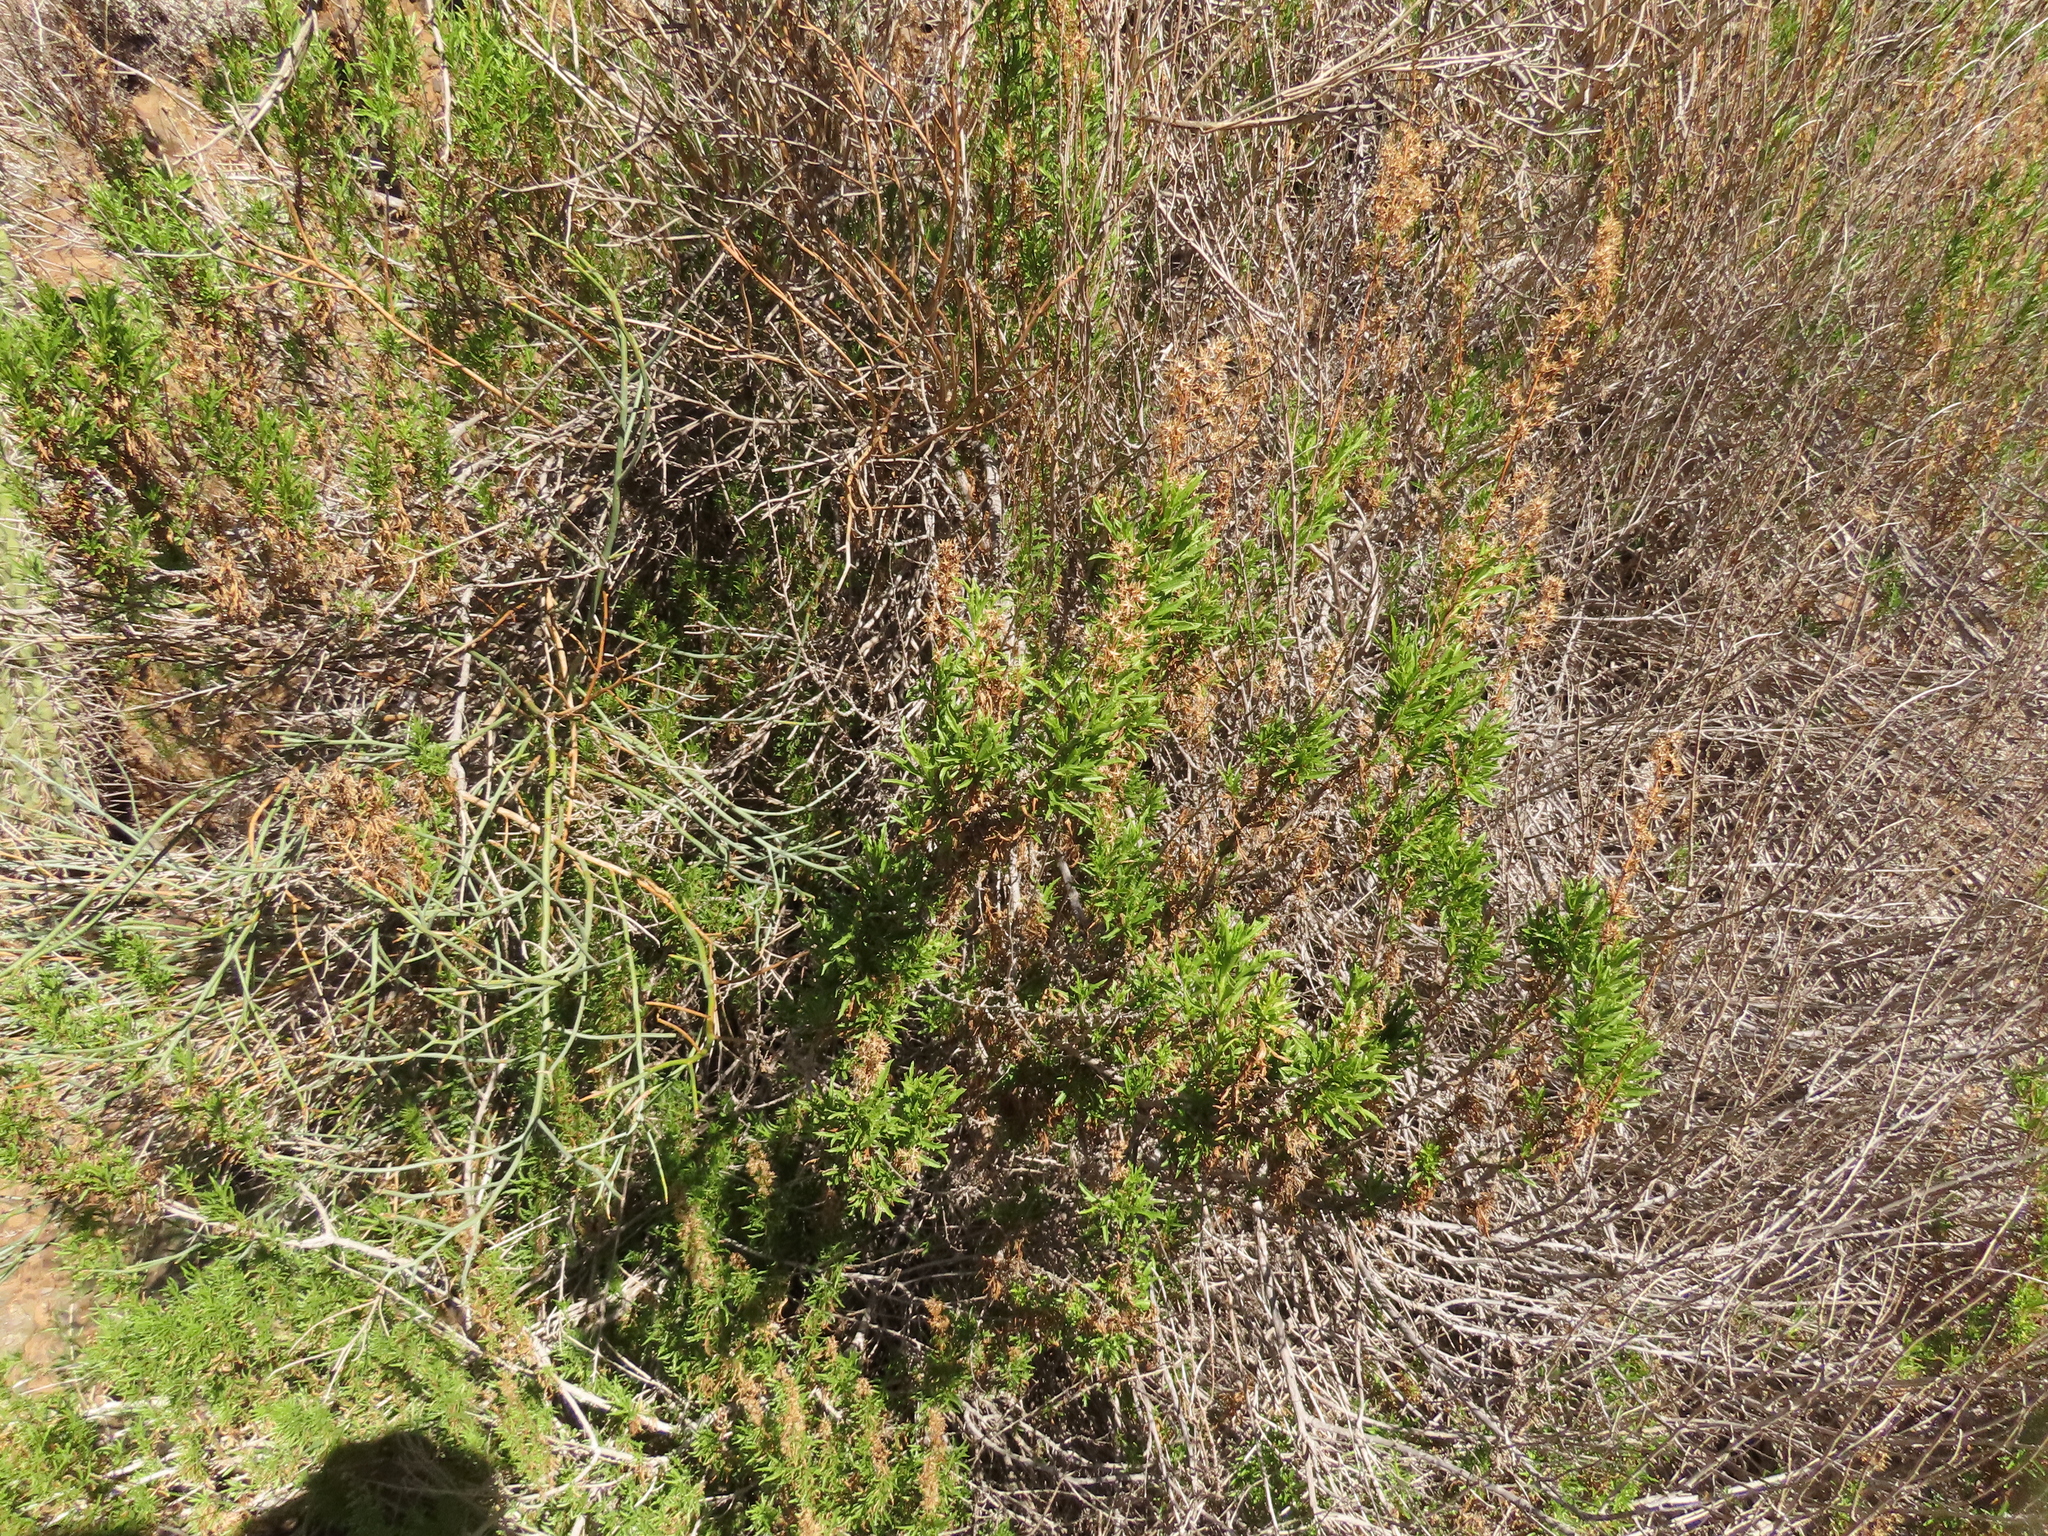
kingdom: Plantae
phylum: Tracheophyta
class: Magnoliopsida
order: Asterales
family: Asteraceae
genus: Ophryosporus
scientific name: Ophryosporus paradoxus
